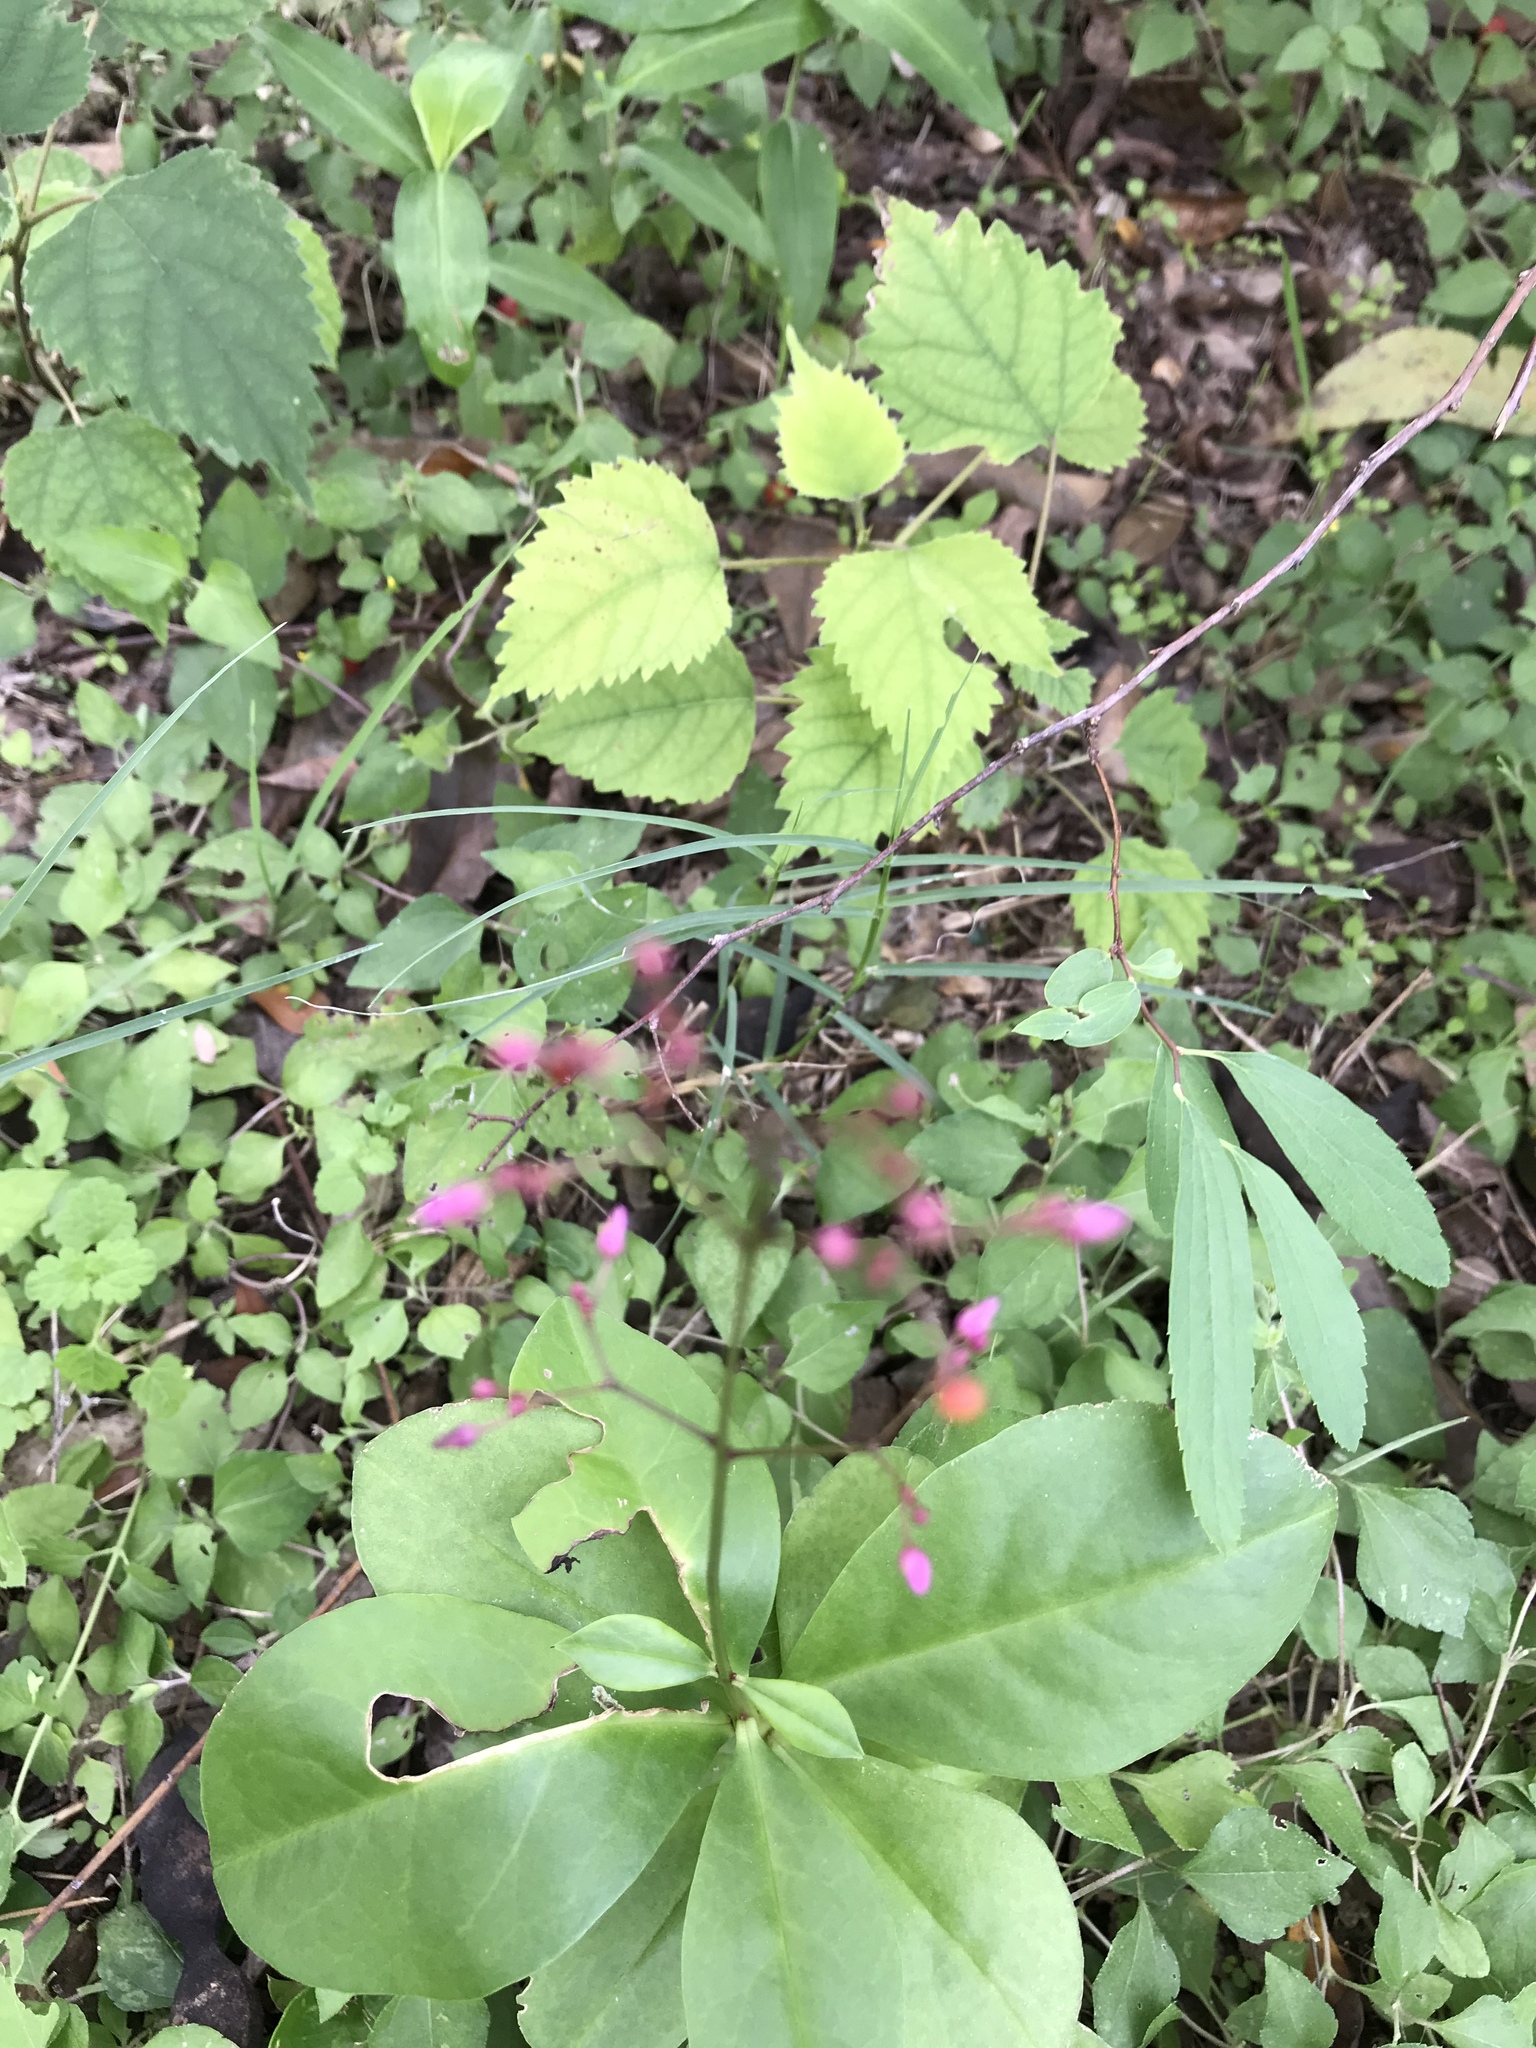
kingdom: Plantae
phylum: Tracheophyta
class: Magnoliopsida
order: Caryophyllales
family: Talinaceae
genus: Talinum
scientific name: Talinum paniculatum
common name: Jewels of opar
